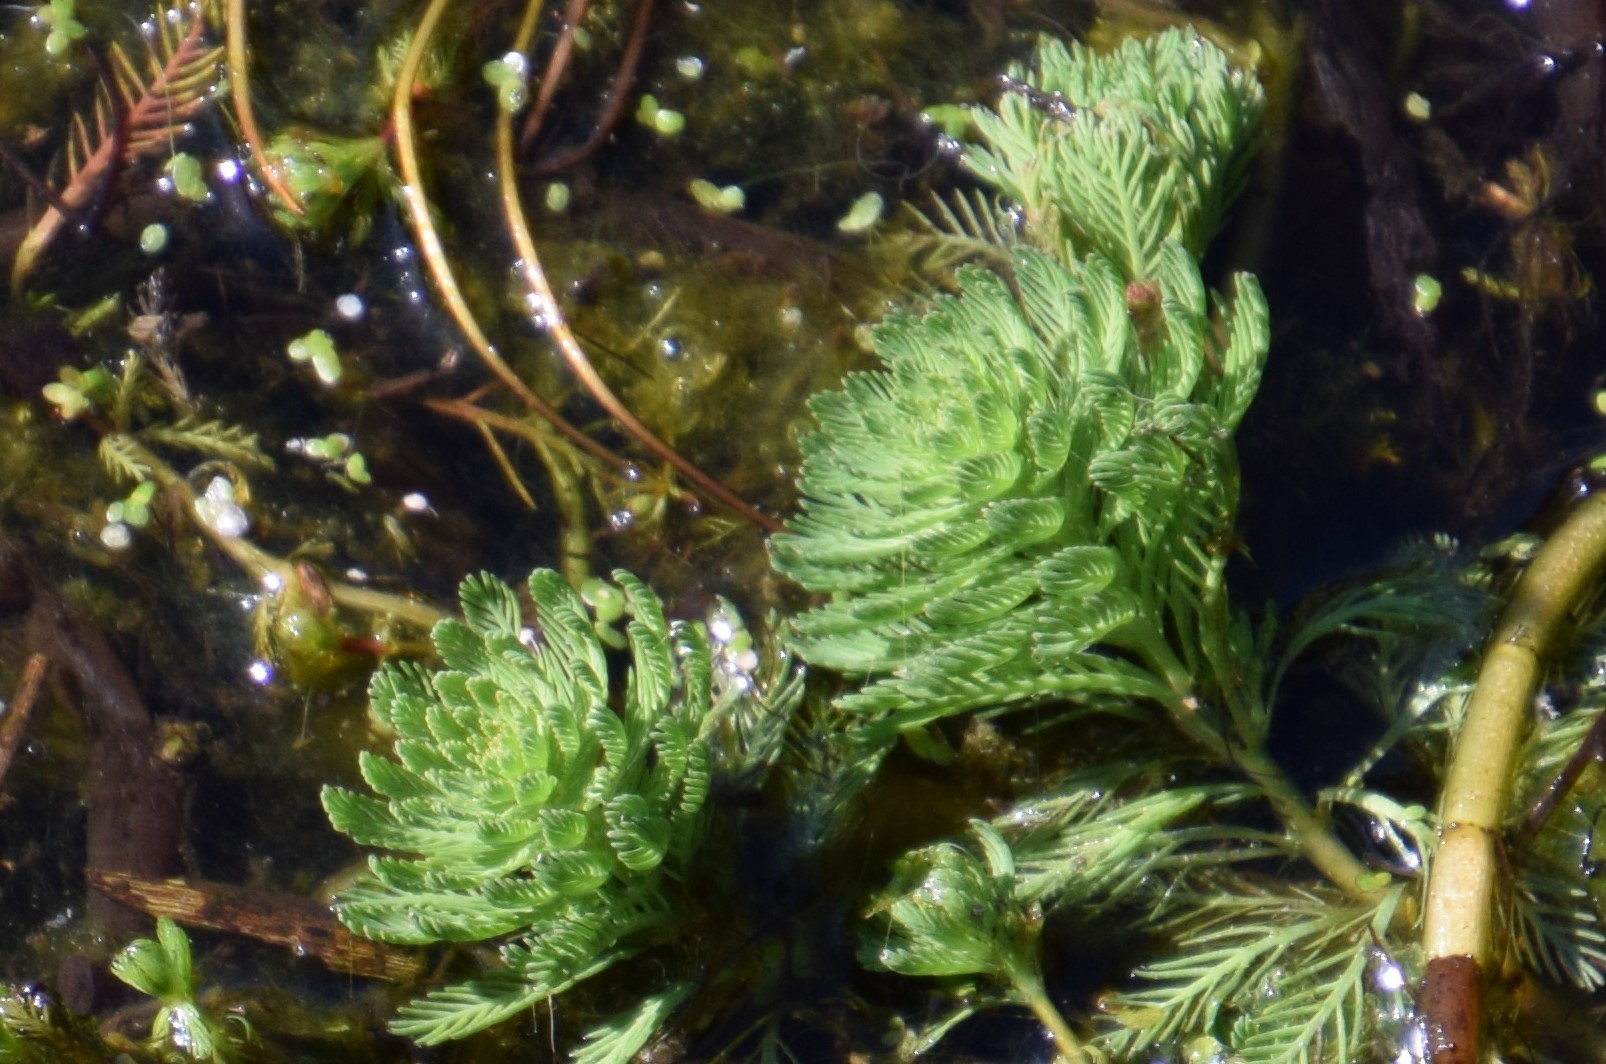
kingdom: Plantae
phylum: Tracheophyta
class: Magnoliopsida
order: Saxifragales
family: Haloragaceae
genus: Myriophyllum
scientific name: Myriophyllum aquaticum
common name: Parrot's feather
